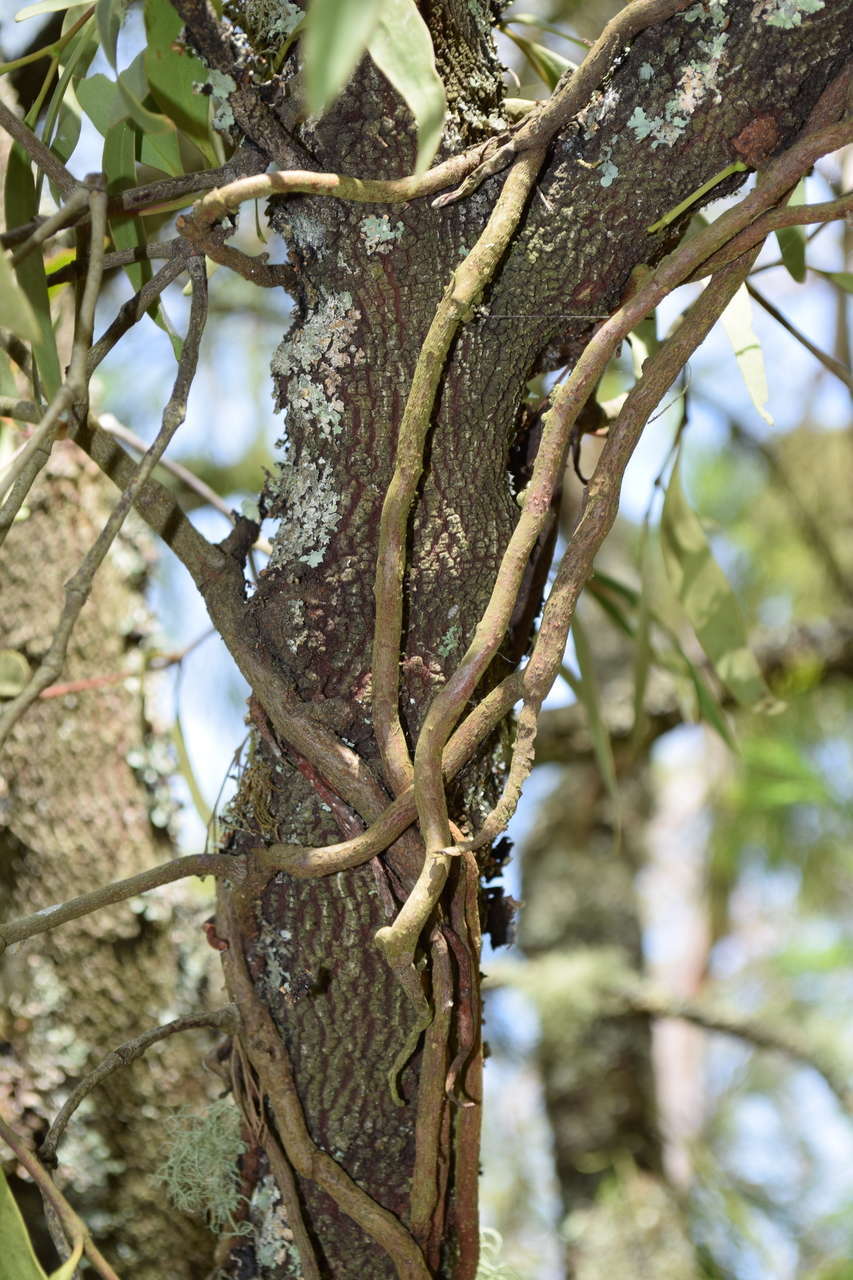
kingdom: Plantae
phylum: Tracheophyta
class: Magnoliopsida
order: Santalales
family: Loranthaceae
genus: Muellerina
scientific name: Muellerina eucalyptoides
